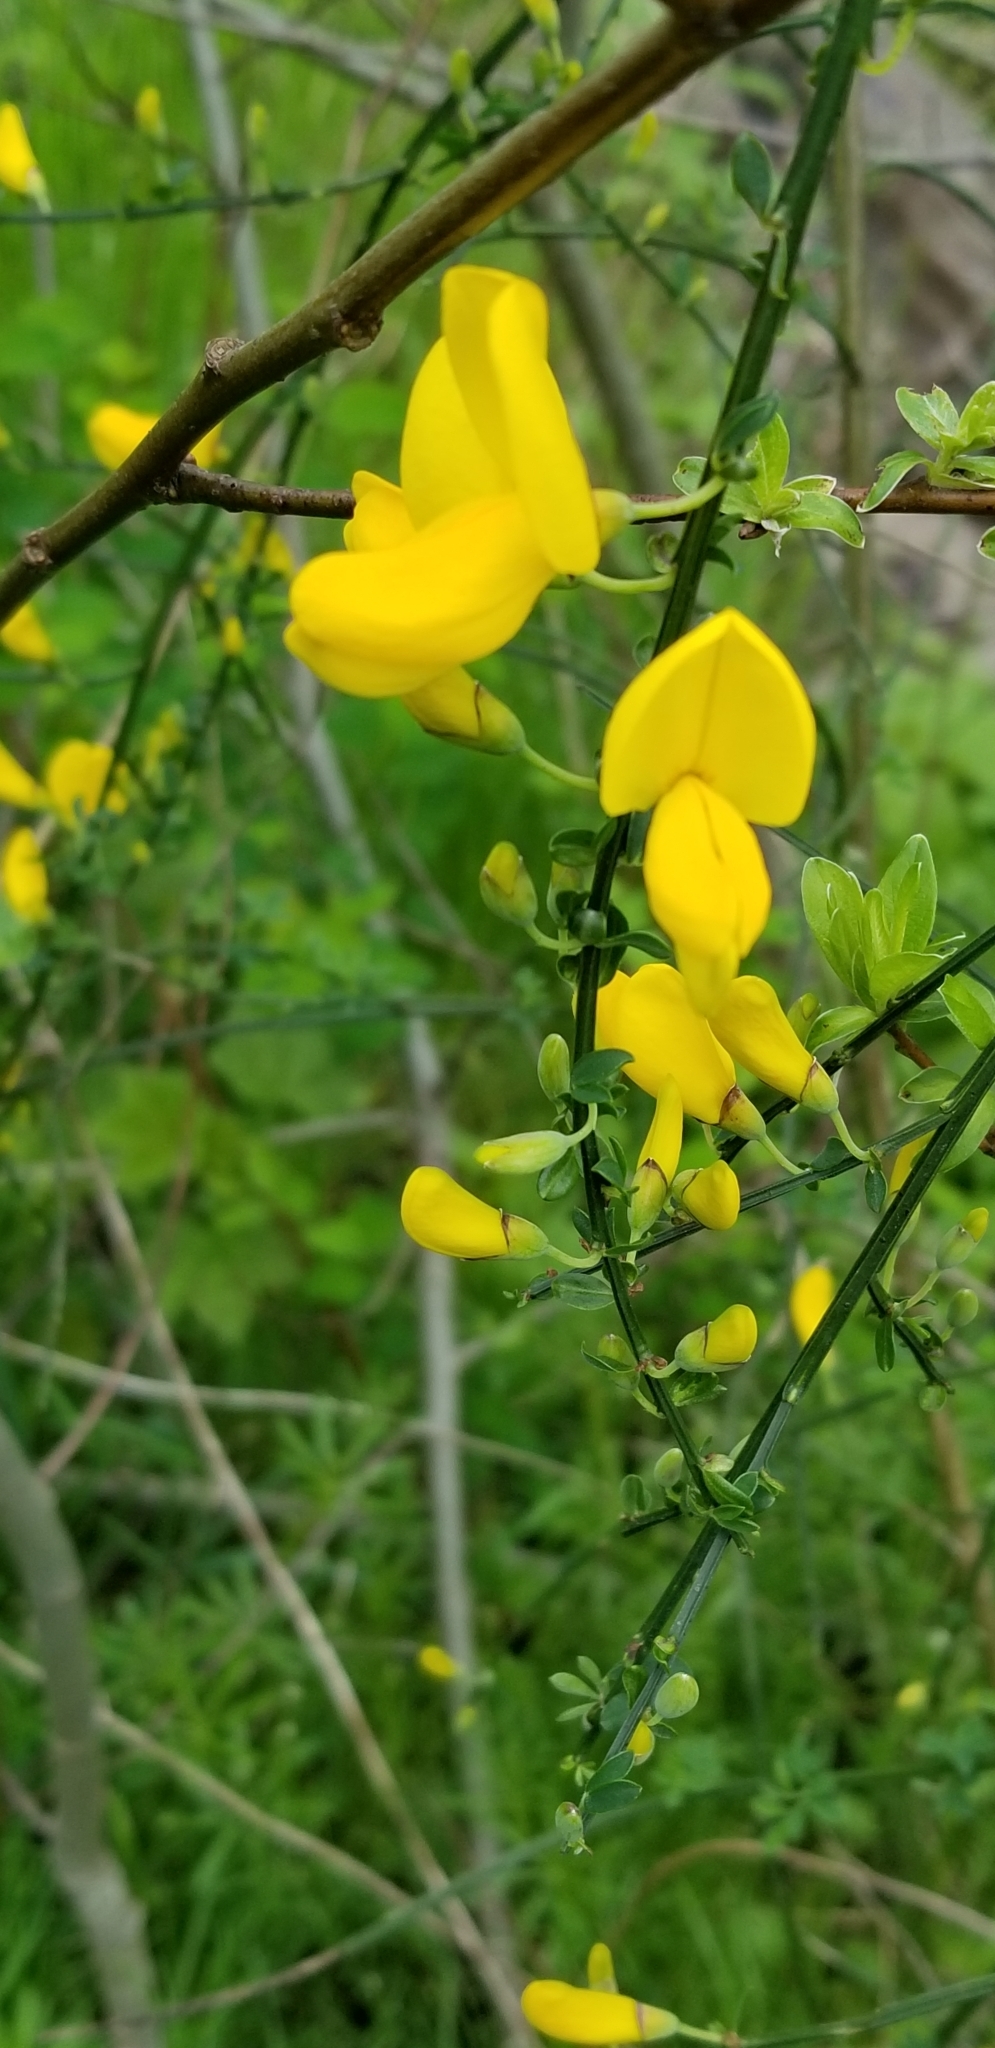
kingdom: Plantae
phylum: Tracheophyta
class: Magnoliopsida
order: Fabales
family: Fabaceae
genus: Cytisus
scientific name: Cytisus scoparius
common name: Scotch broom
